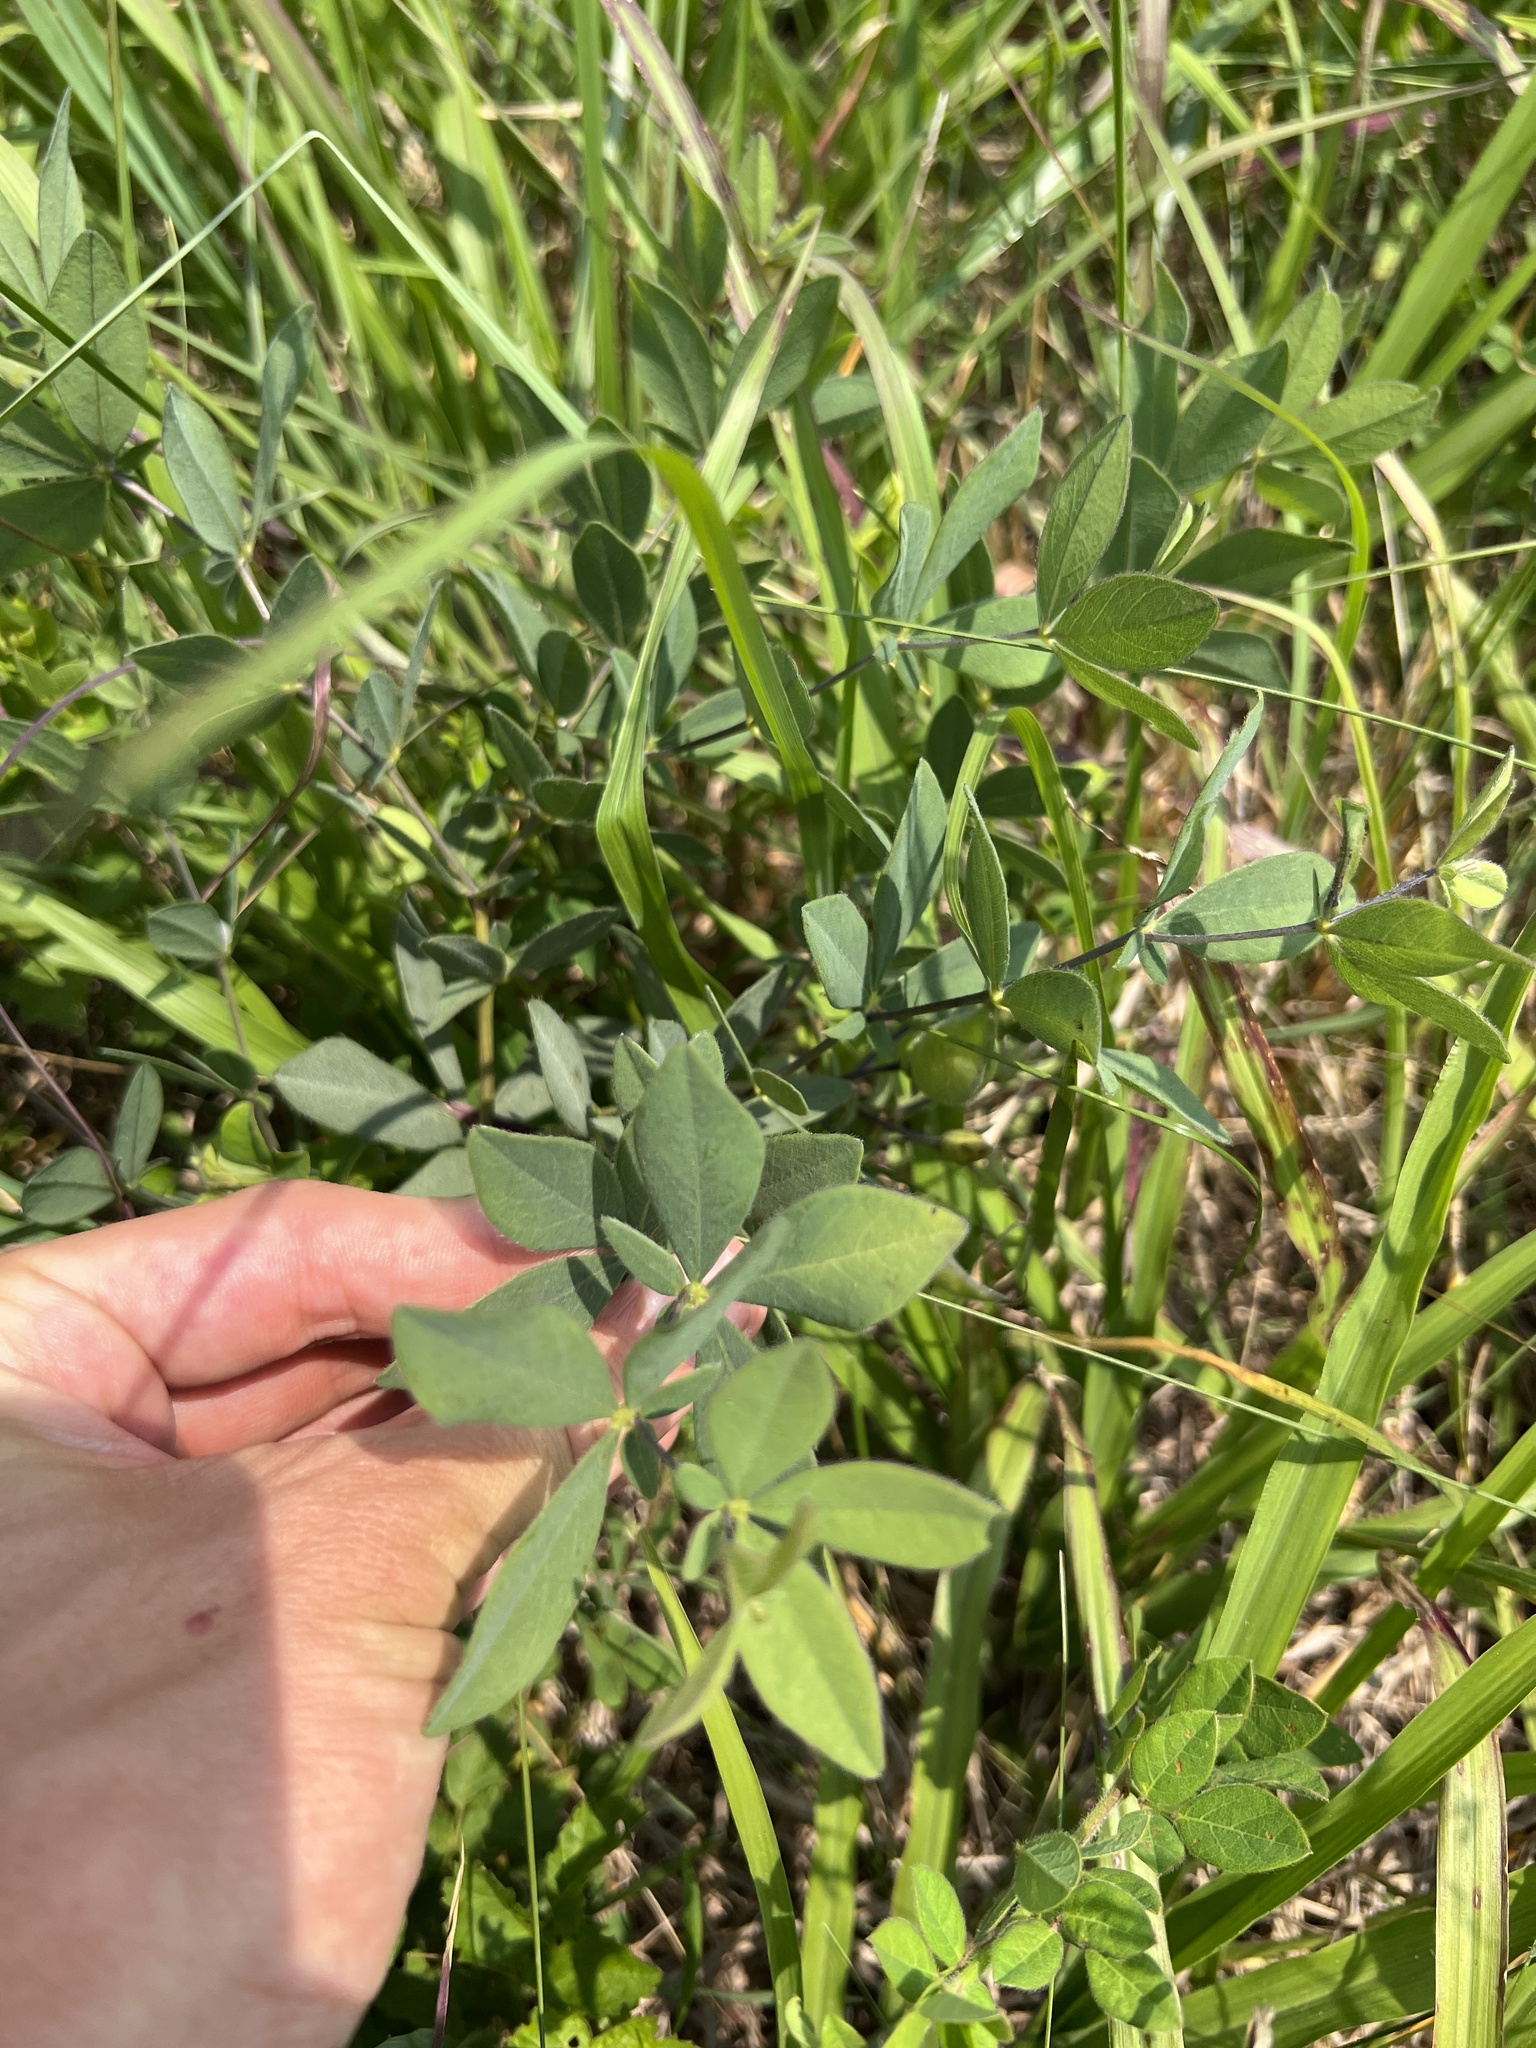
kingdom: Plantae
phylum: Tracheophyta
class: Magnoliopsida
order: Fabales
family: Fabaceae
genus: Baptisia
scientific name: Baptisia bracteata
